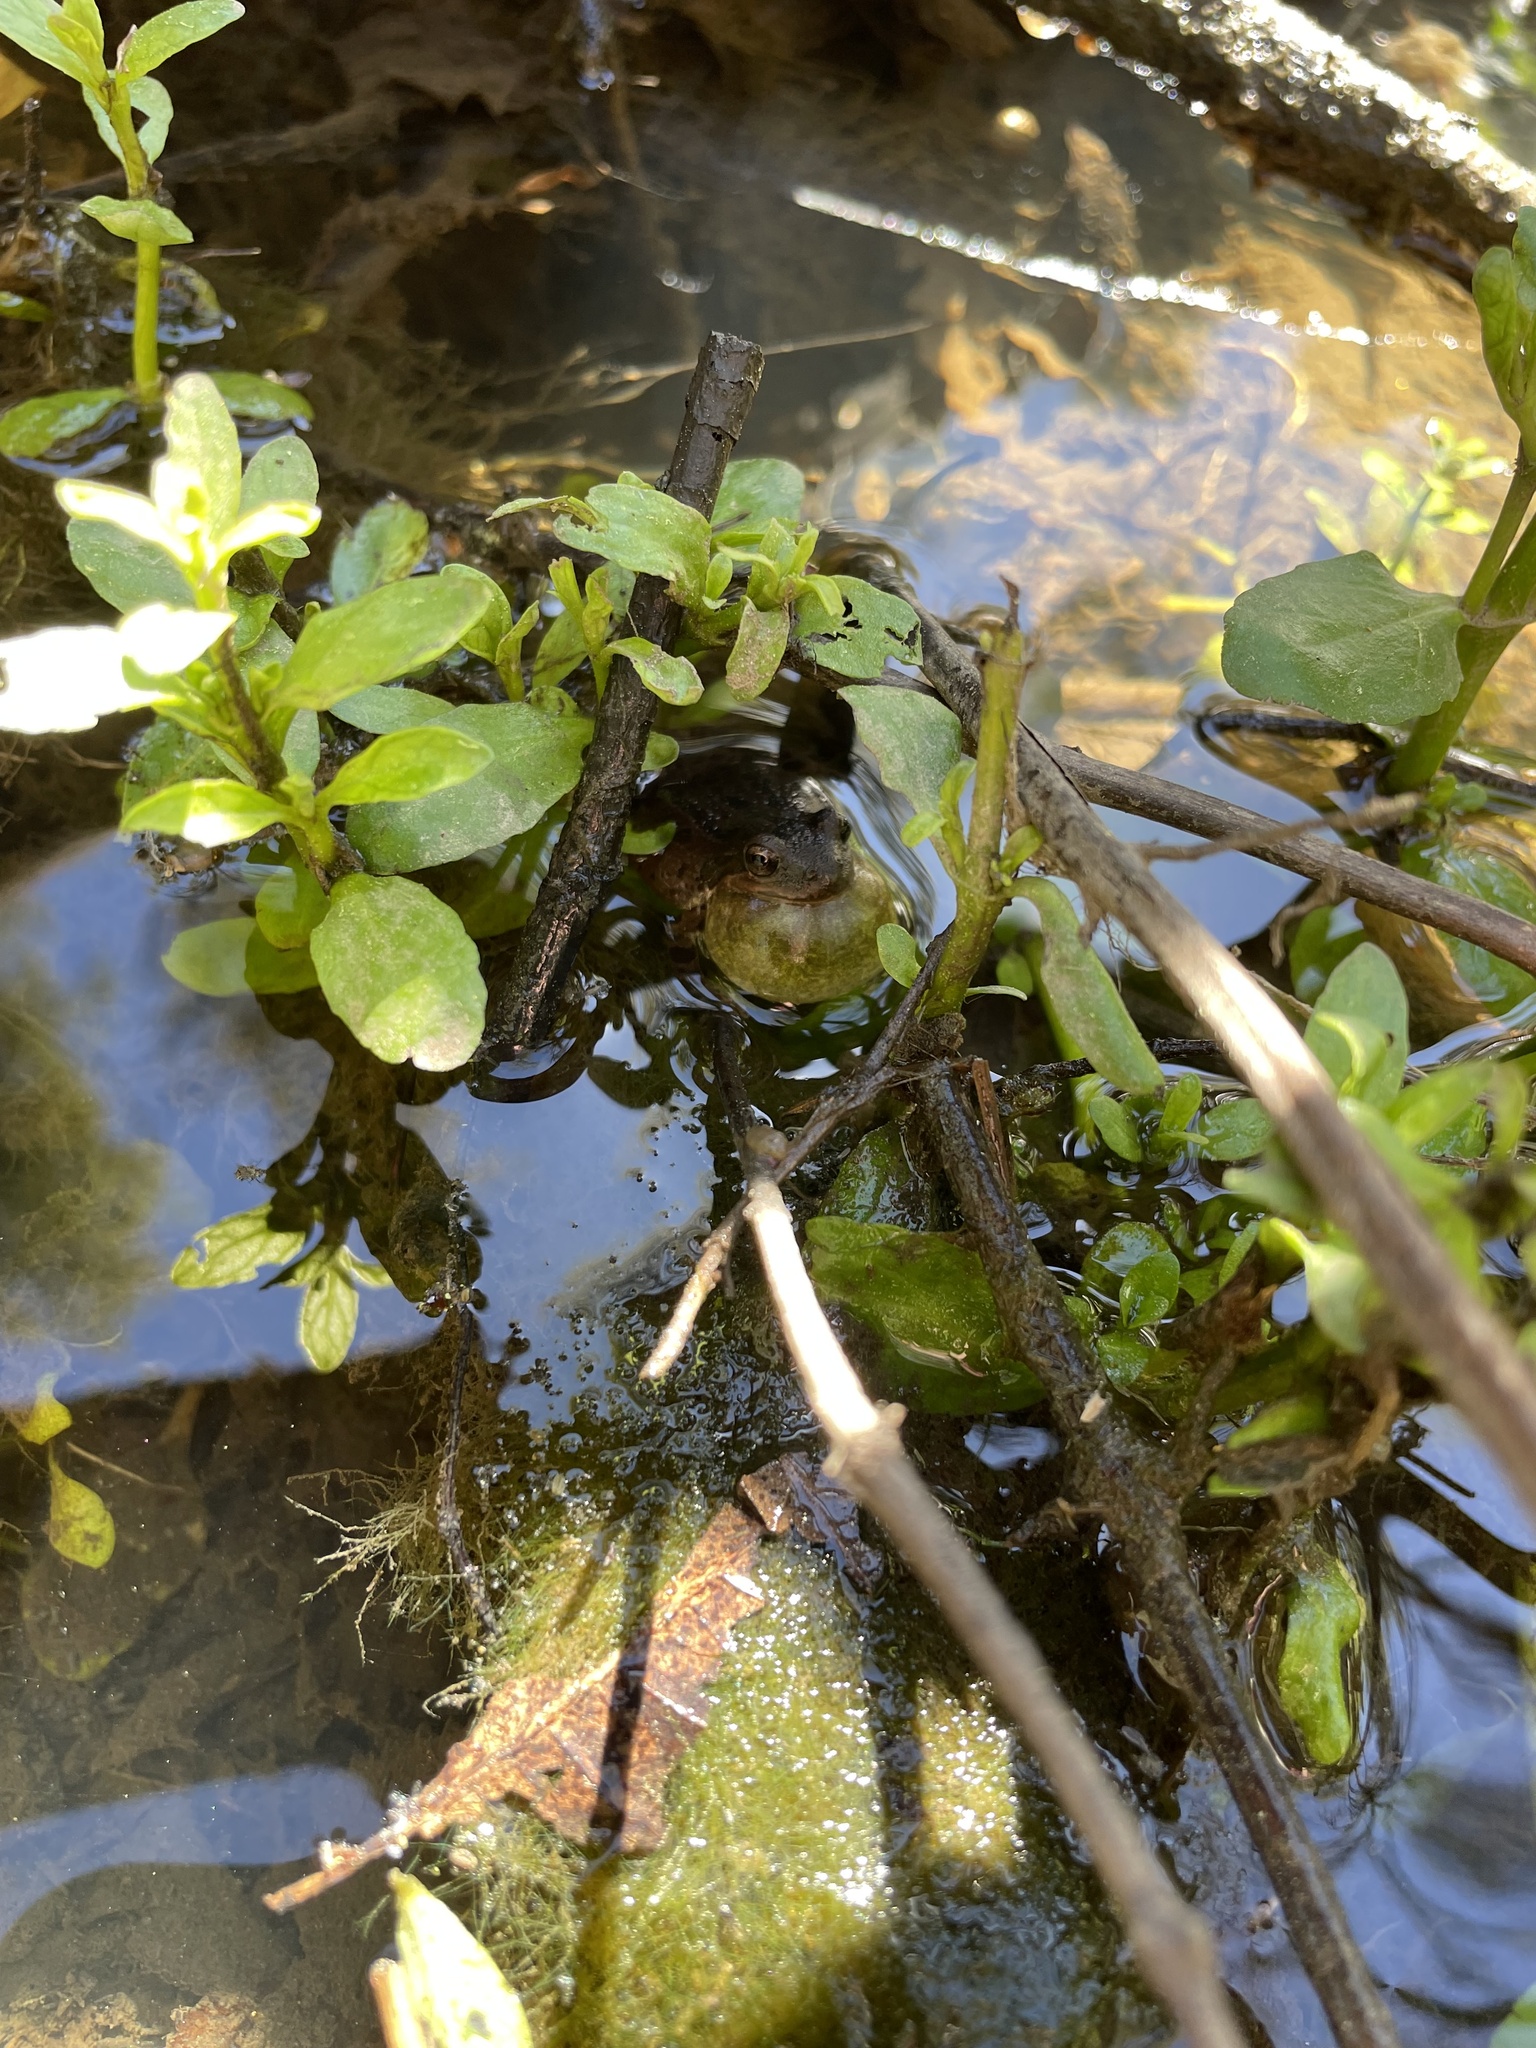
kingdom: Animalia
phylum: Chordata
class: Amphibia
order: Anura
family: Hylidae
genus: Pseudacris
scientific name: Pseudacris regilla
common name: Pacific chorus frog
